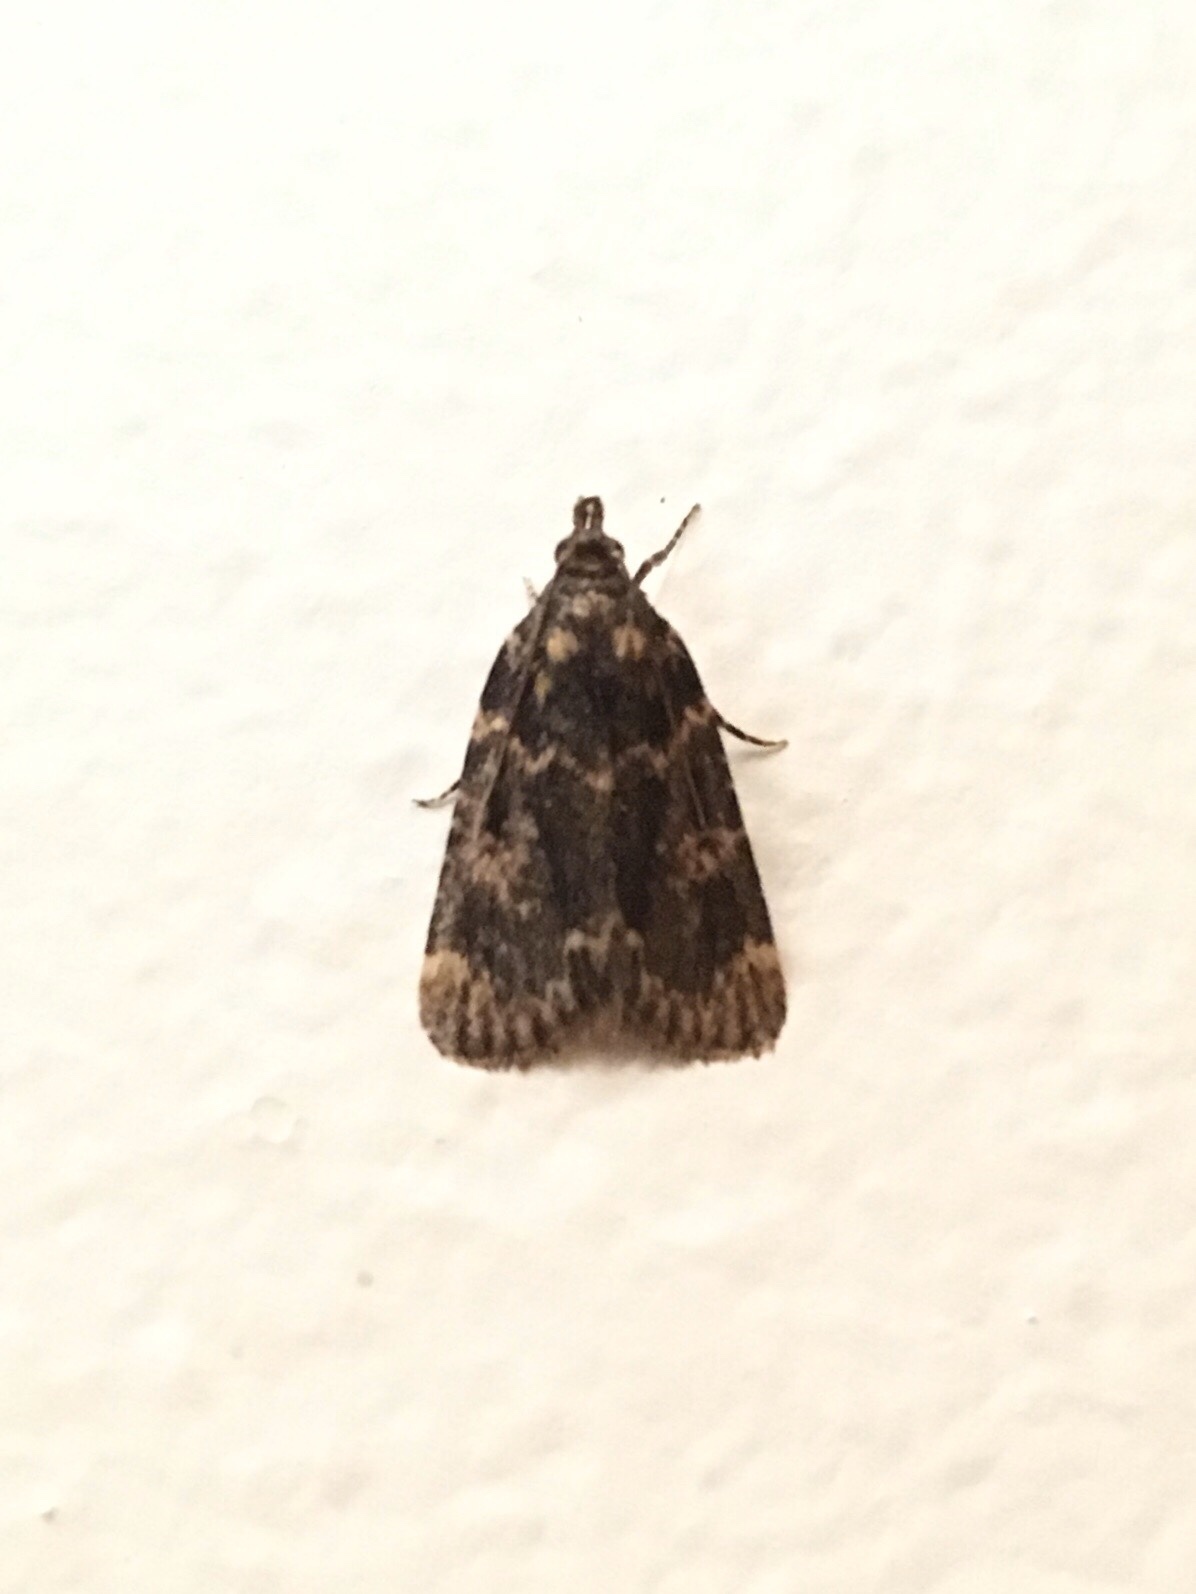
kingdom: Animalia
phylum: Arthropoda
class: Insecta
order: Lepidoptera
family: Pyralidae
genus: Aglossa
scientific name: Aglossa caprealis
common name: Small tabby
